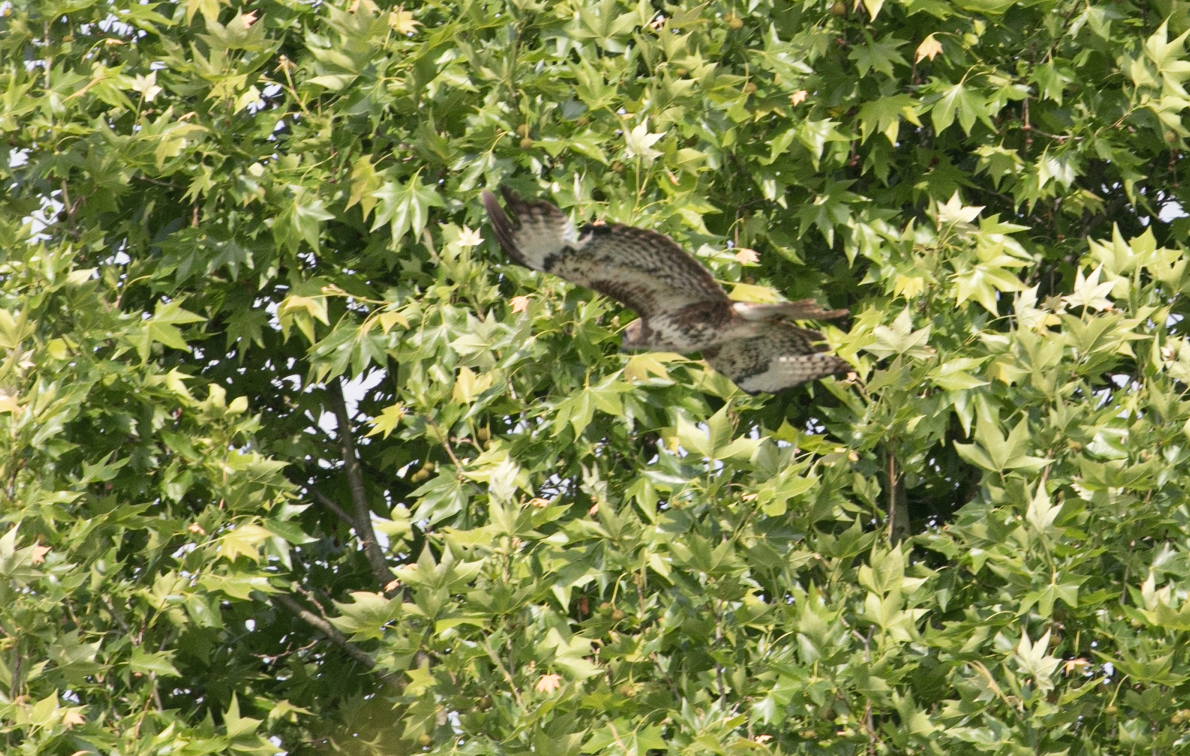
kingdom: Animalia
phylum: Chordata
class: Aves
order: Accipitriformes
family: Accipitridae
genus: Buteo
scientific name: Buteo buteo
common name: Common buzzard
